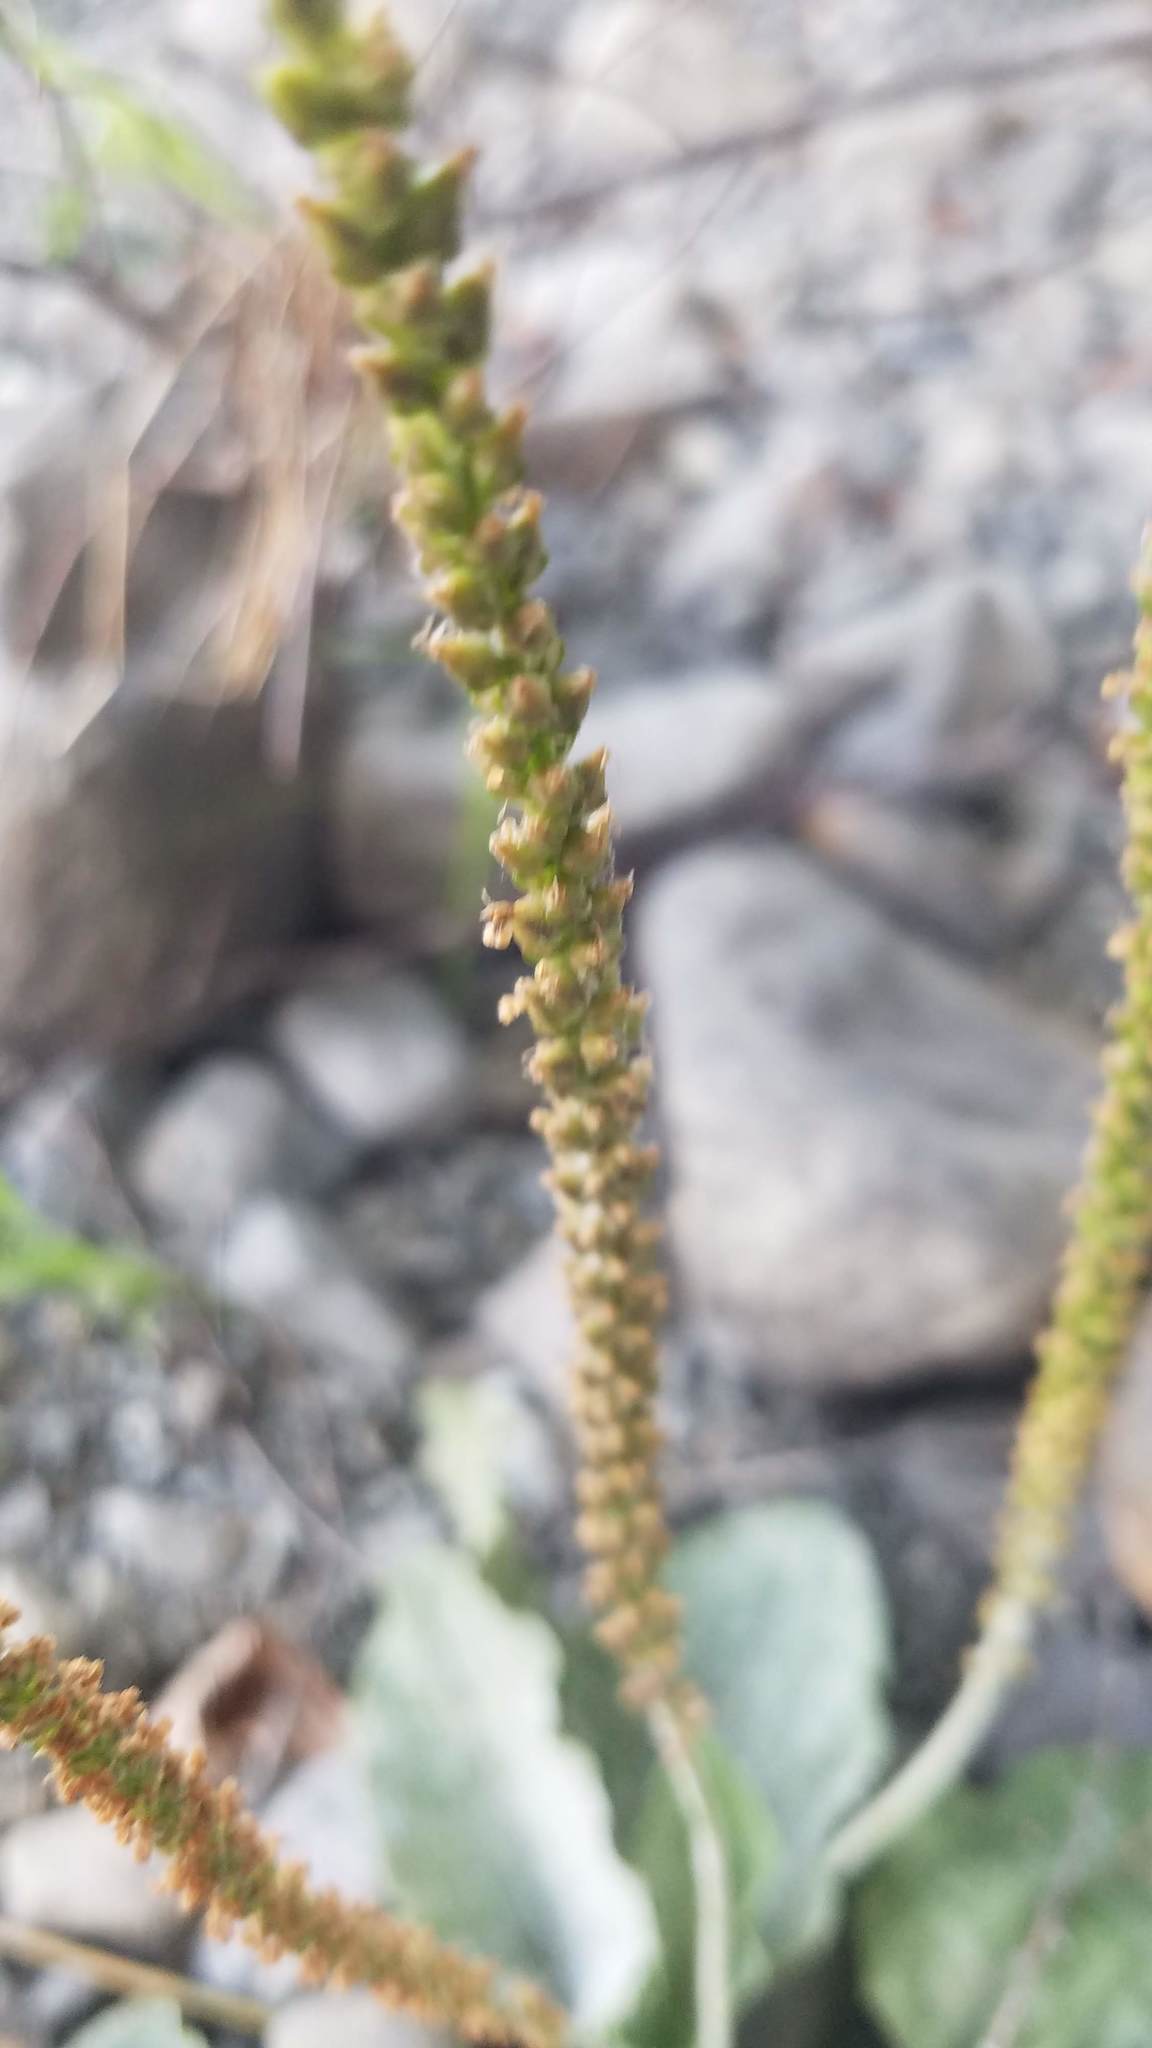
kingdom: Plantae
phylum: Tracheophyta
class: Magnoliopsida
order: Lamiales
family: Plantaginaceae
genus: Plantago
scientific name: Plantago major
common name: Common plantain
